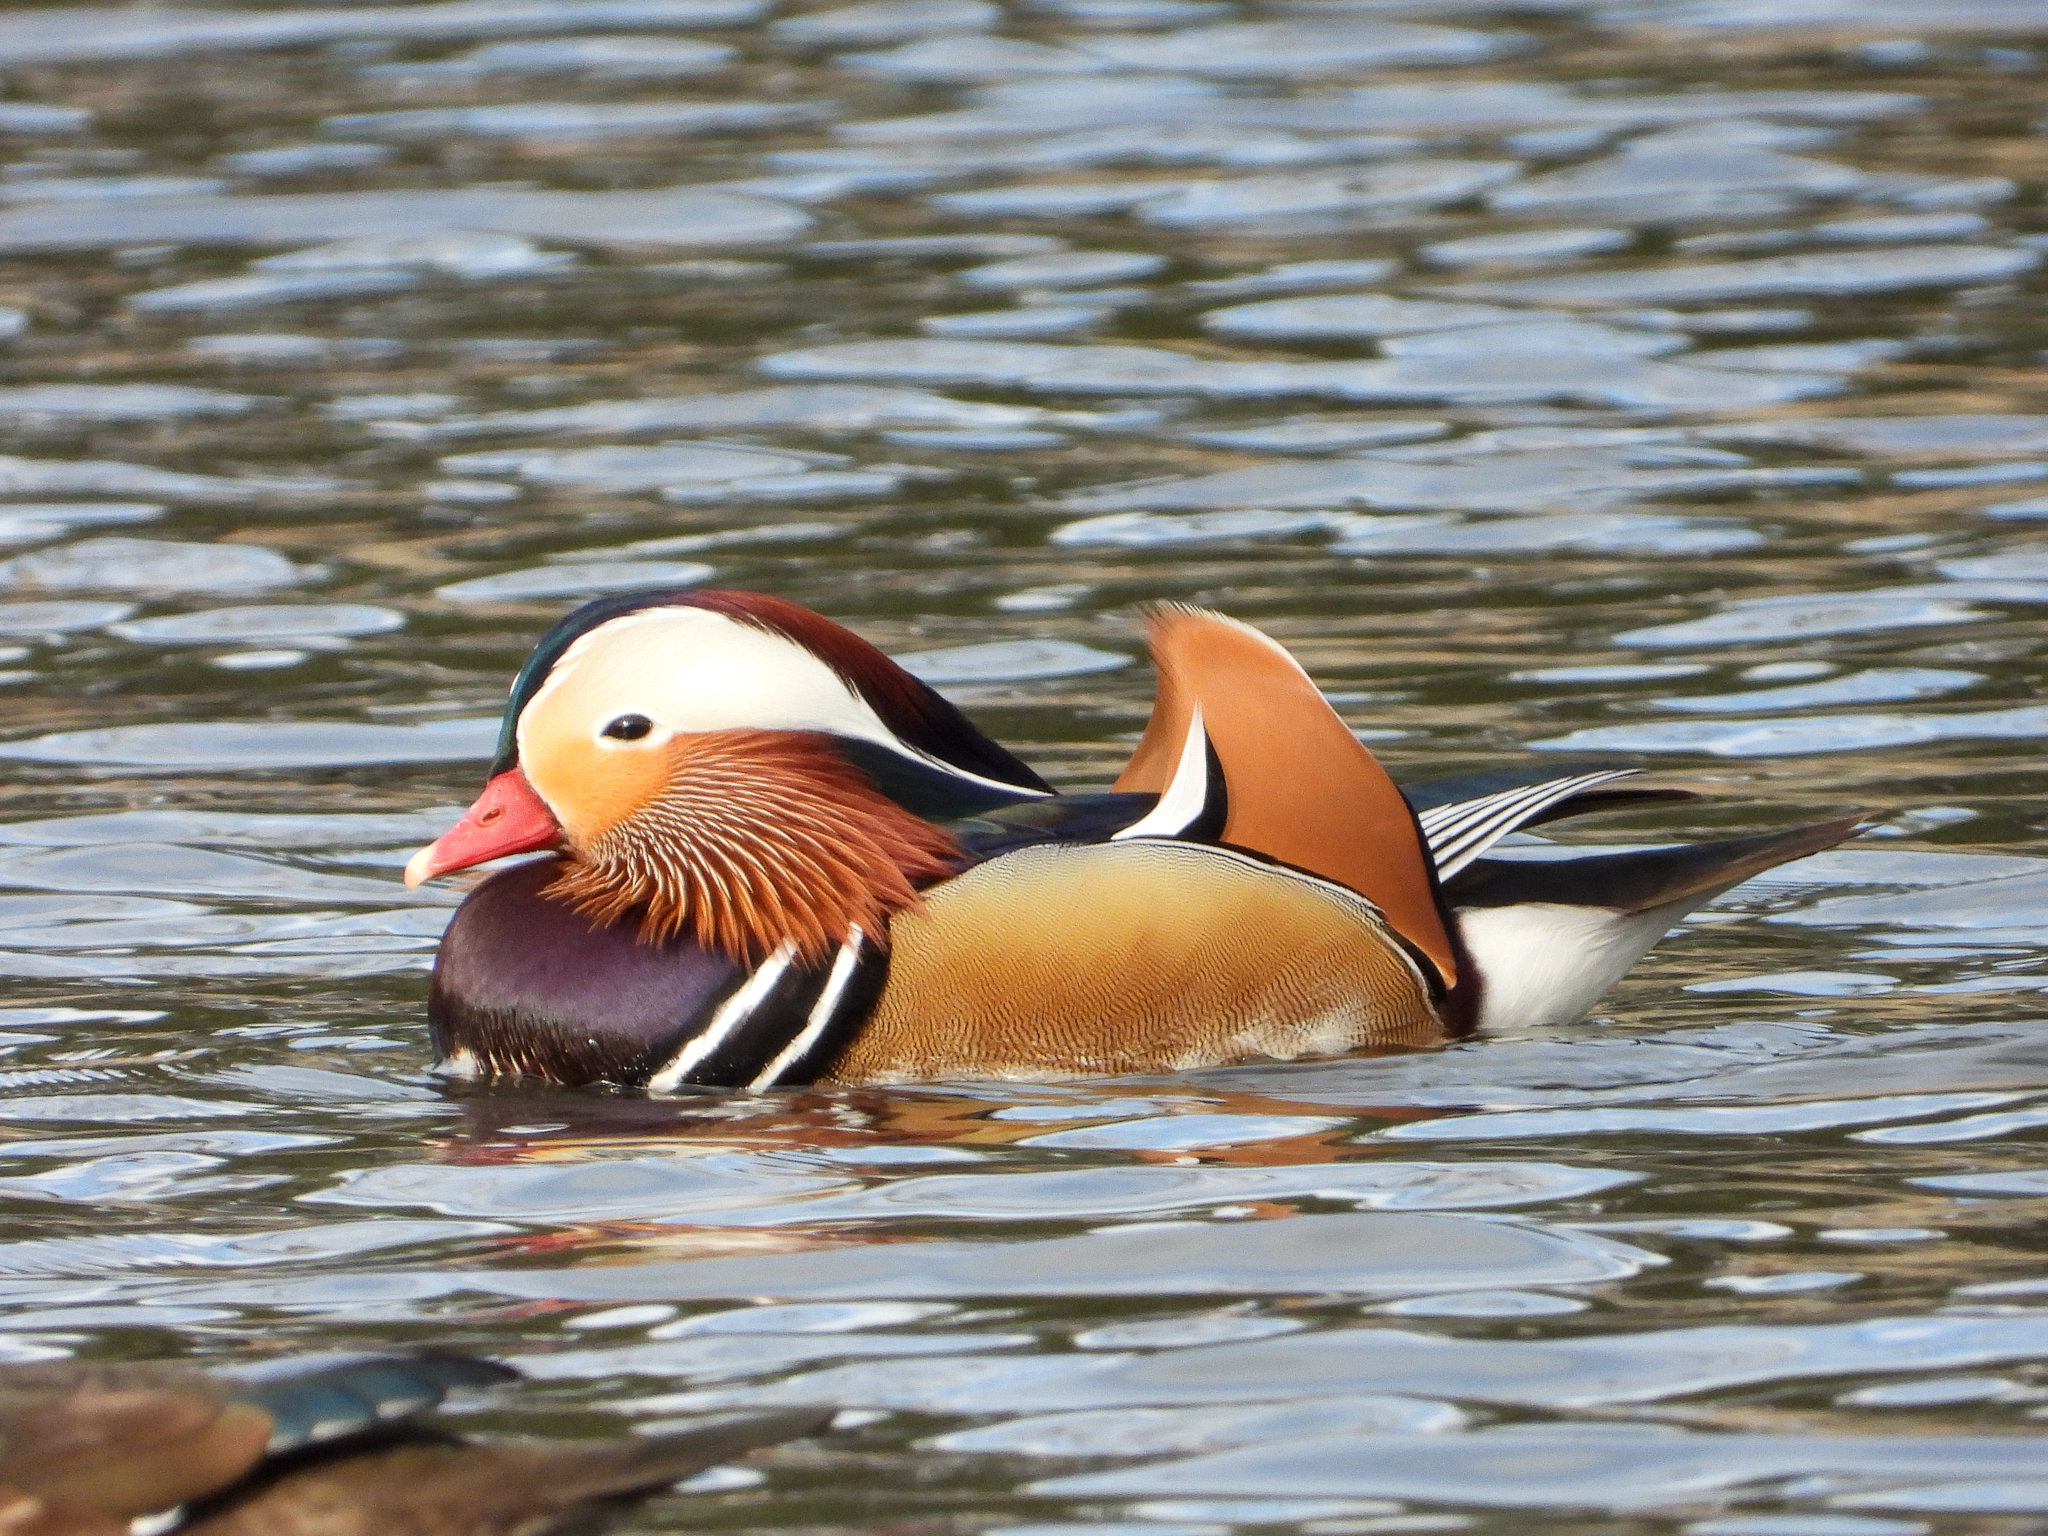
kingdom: Animalia
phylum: Chordata
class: Aves
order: Anseriformes
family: Anatidae
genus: Aix
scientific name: Aix galericulata
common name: Mandarin duck
